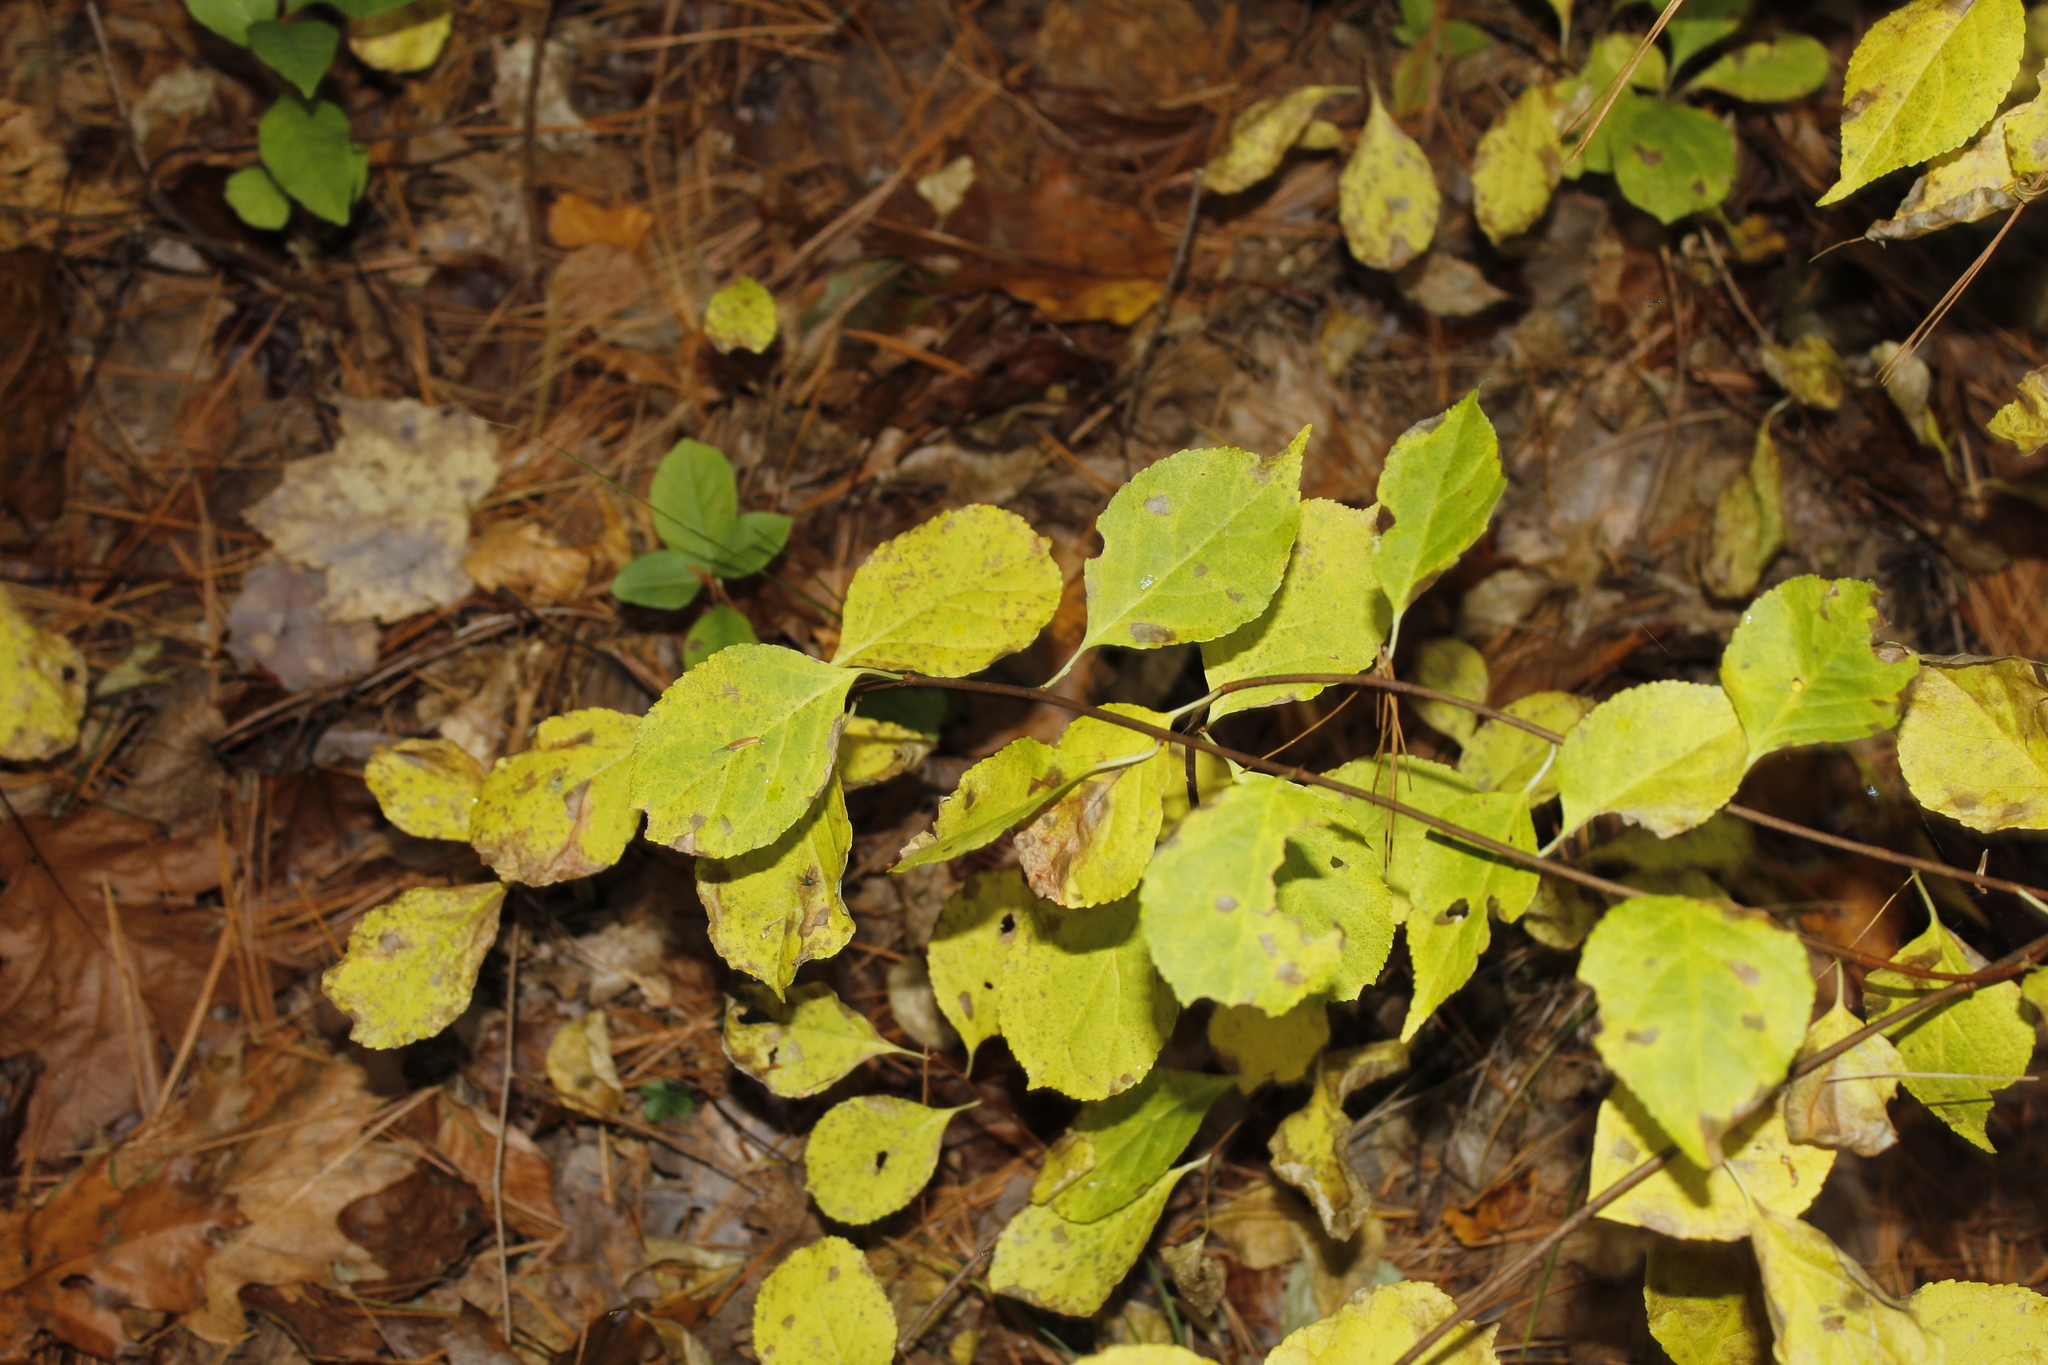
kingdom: Plantae
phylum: Tracheophyta
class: Magnoliopsida
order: Celastrales
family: Celastraceae
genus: Celastrus
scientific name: Celastrus orbiculatus
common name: Oriental bittersweet
